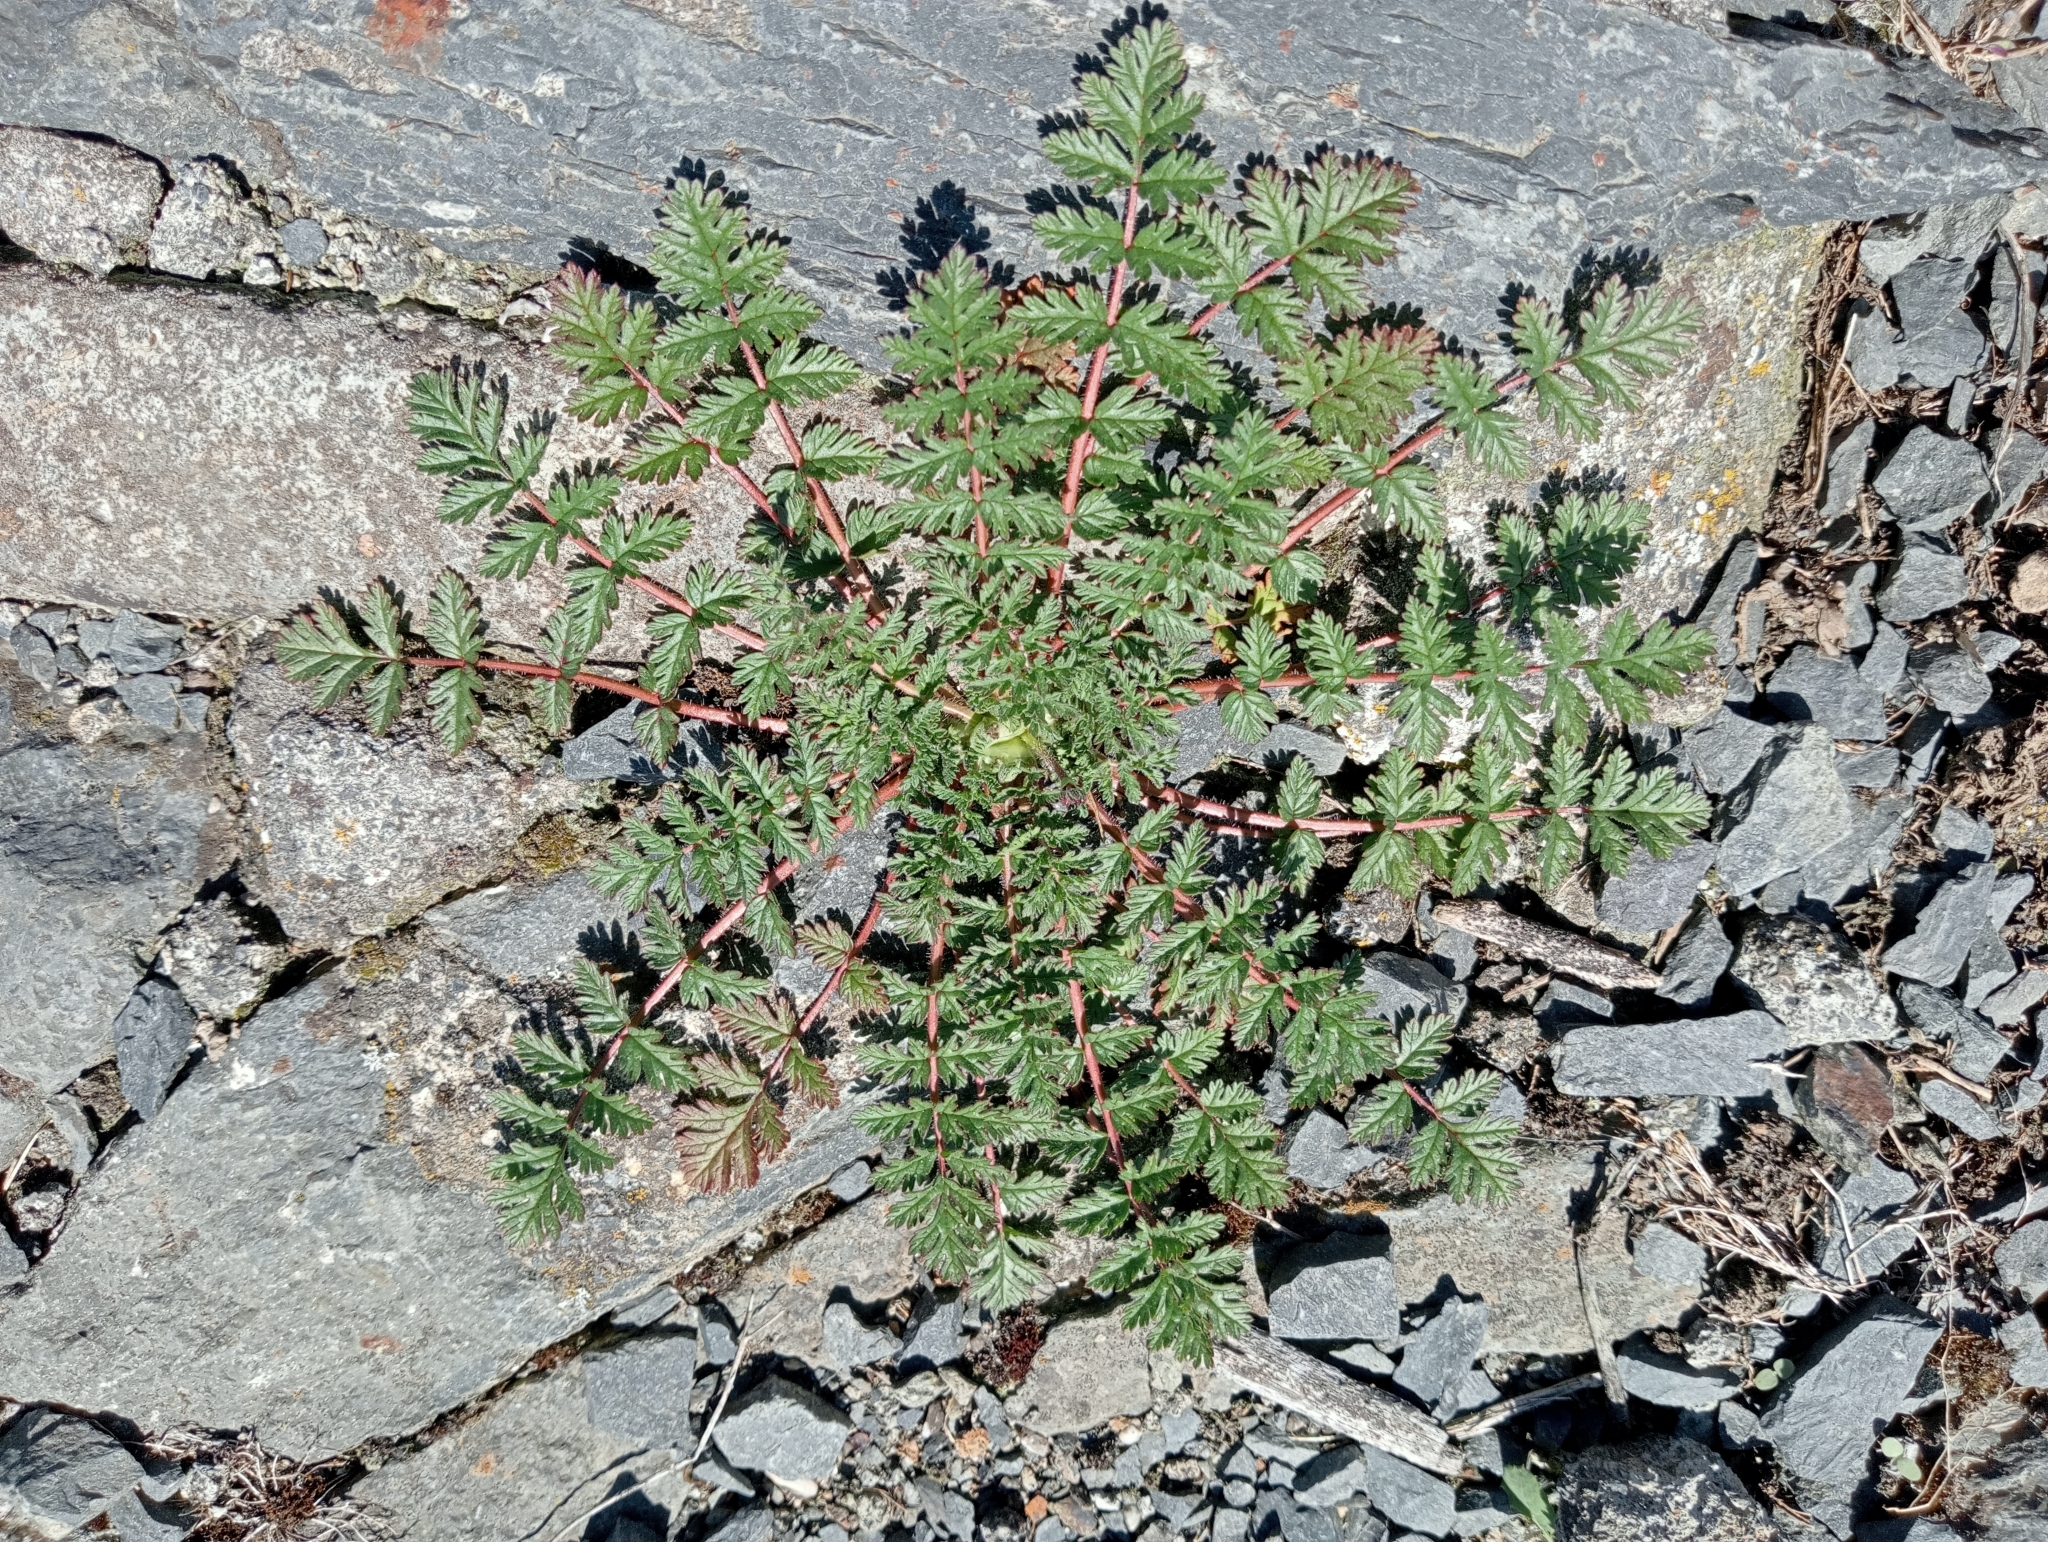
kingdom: Plantae
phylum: Tracheophyta
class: Magnoliopsida
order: Geraniales
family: Geraniaceae
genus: Erodium
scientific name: Erodium cicutarium
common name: Common stork's-bill
